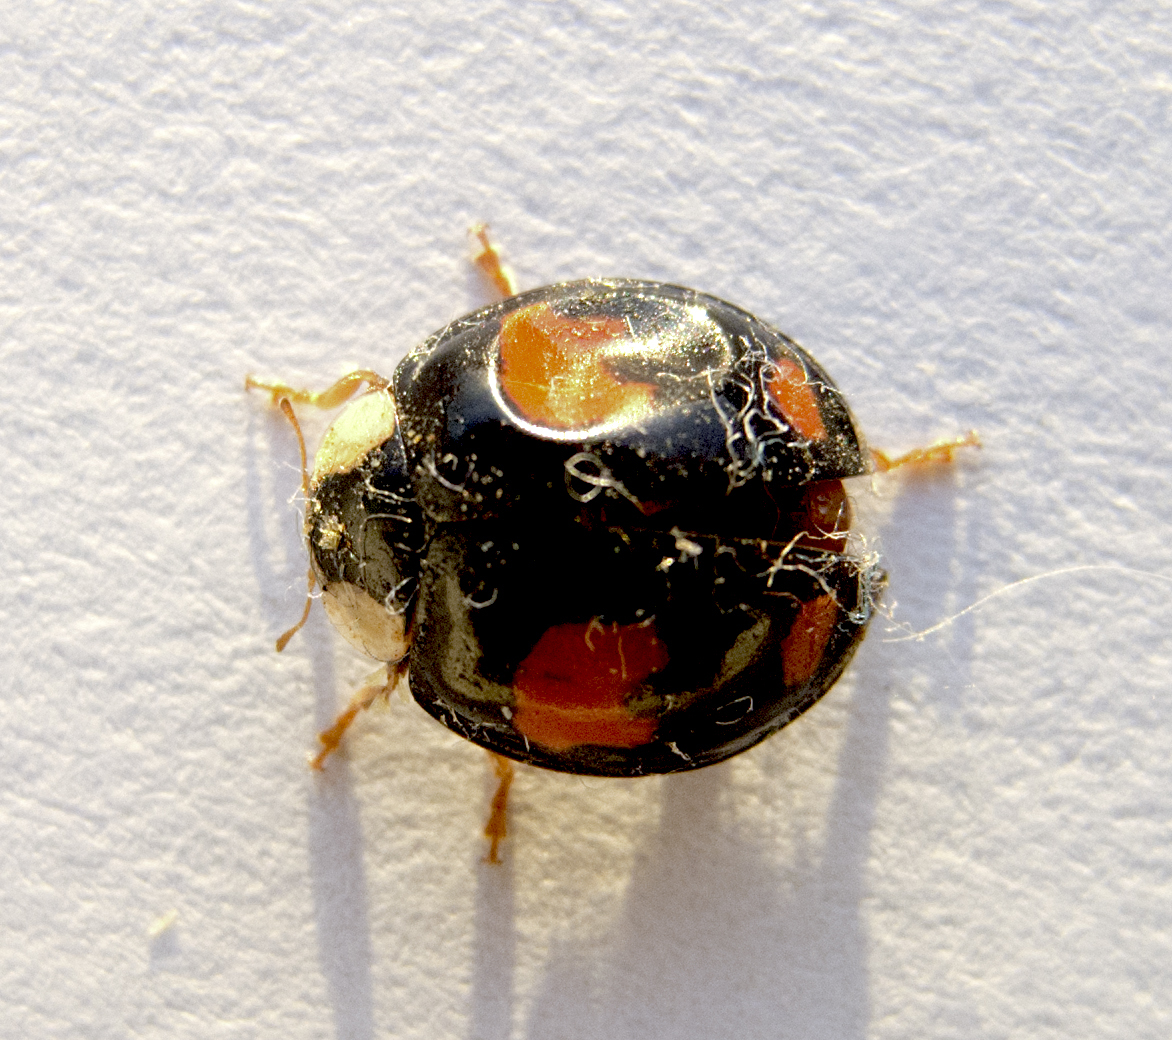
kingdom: Animalia
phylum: Arthropoda
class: Insecta
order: Coleoptera
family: Coccinellidae
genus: Harmonia
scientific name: Harmonia axyridis
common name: Harlequin ladybird
